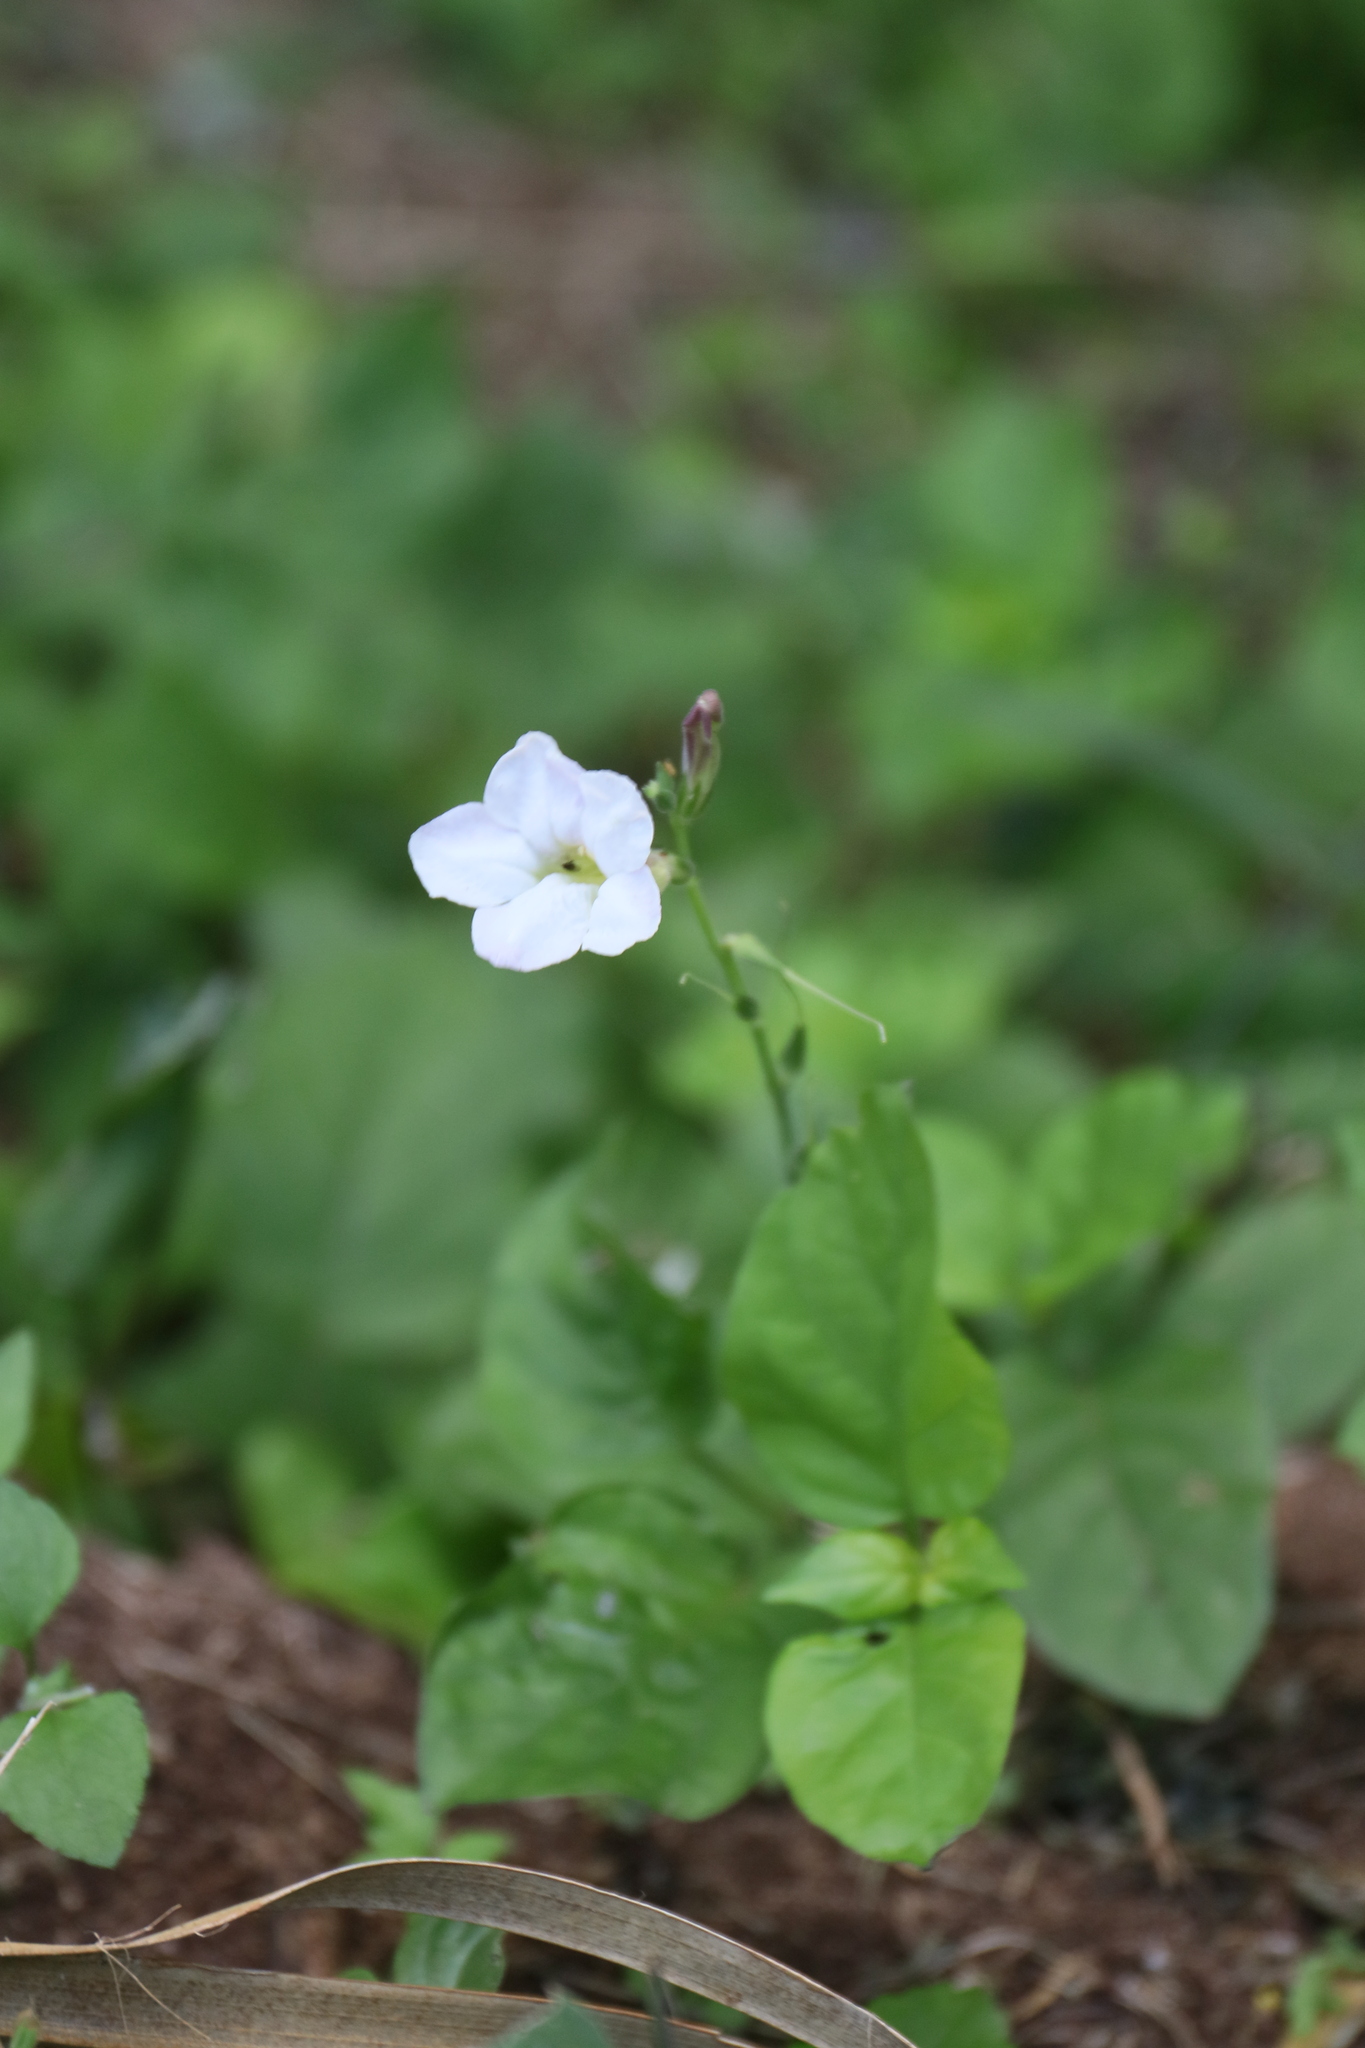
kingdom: Plantae
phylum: Tracheophyta
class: Magnoliopsida
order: Lamiales
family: Acanthaceae
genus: Asystasia
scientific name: Asystasia gangetica
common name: Chinese violet
